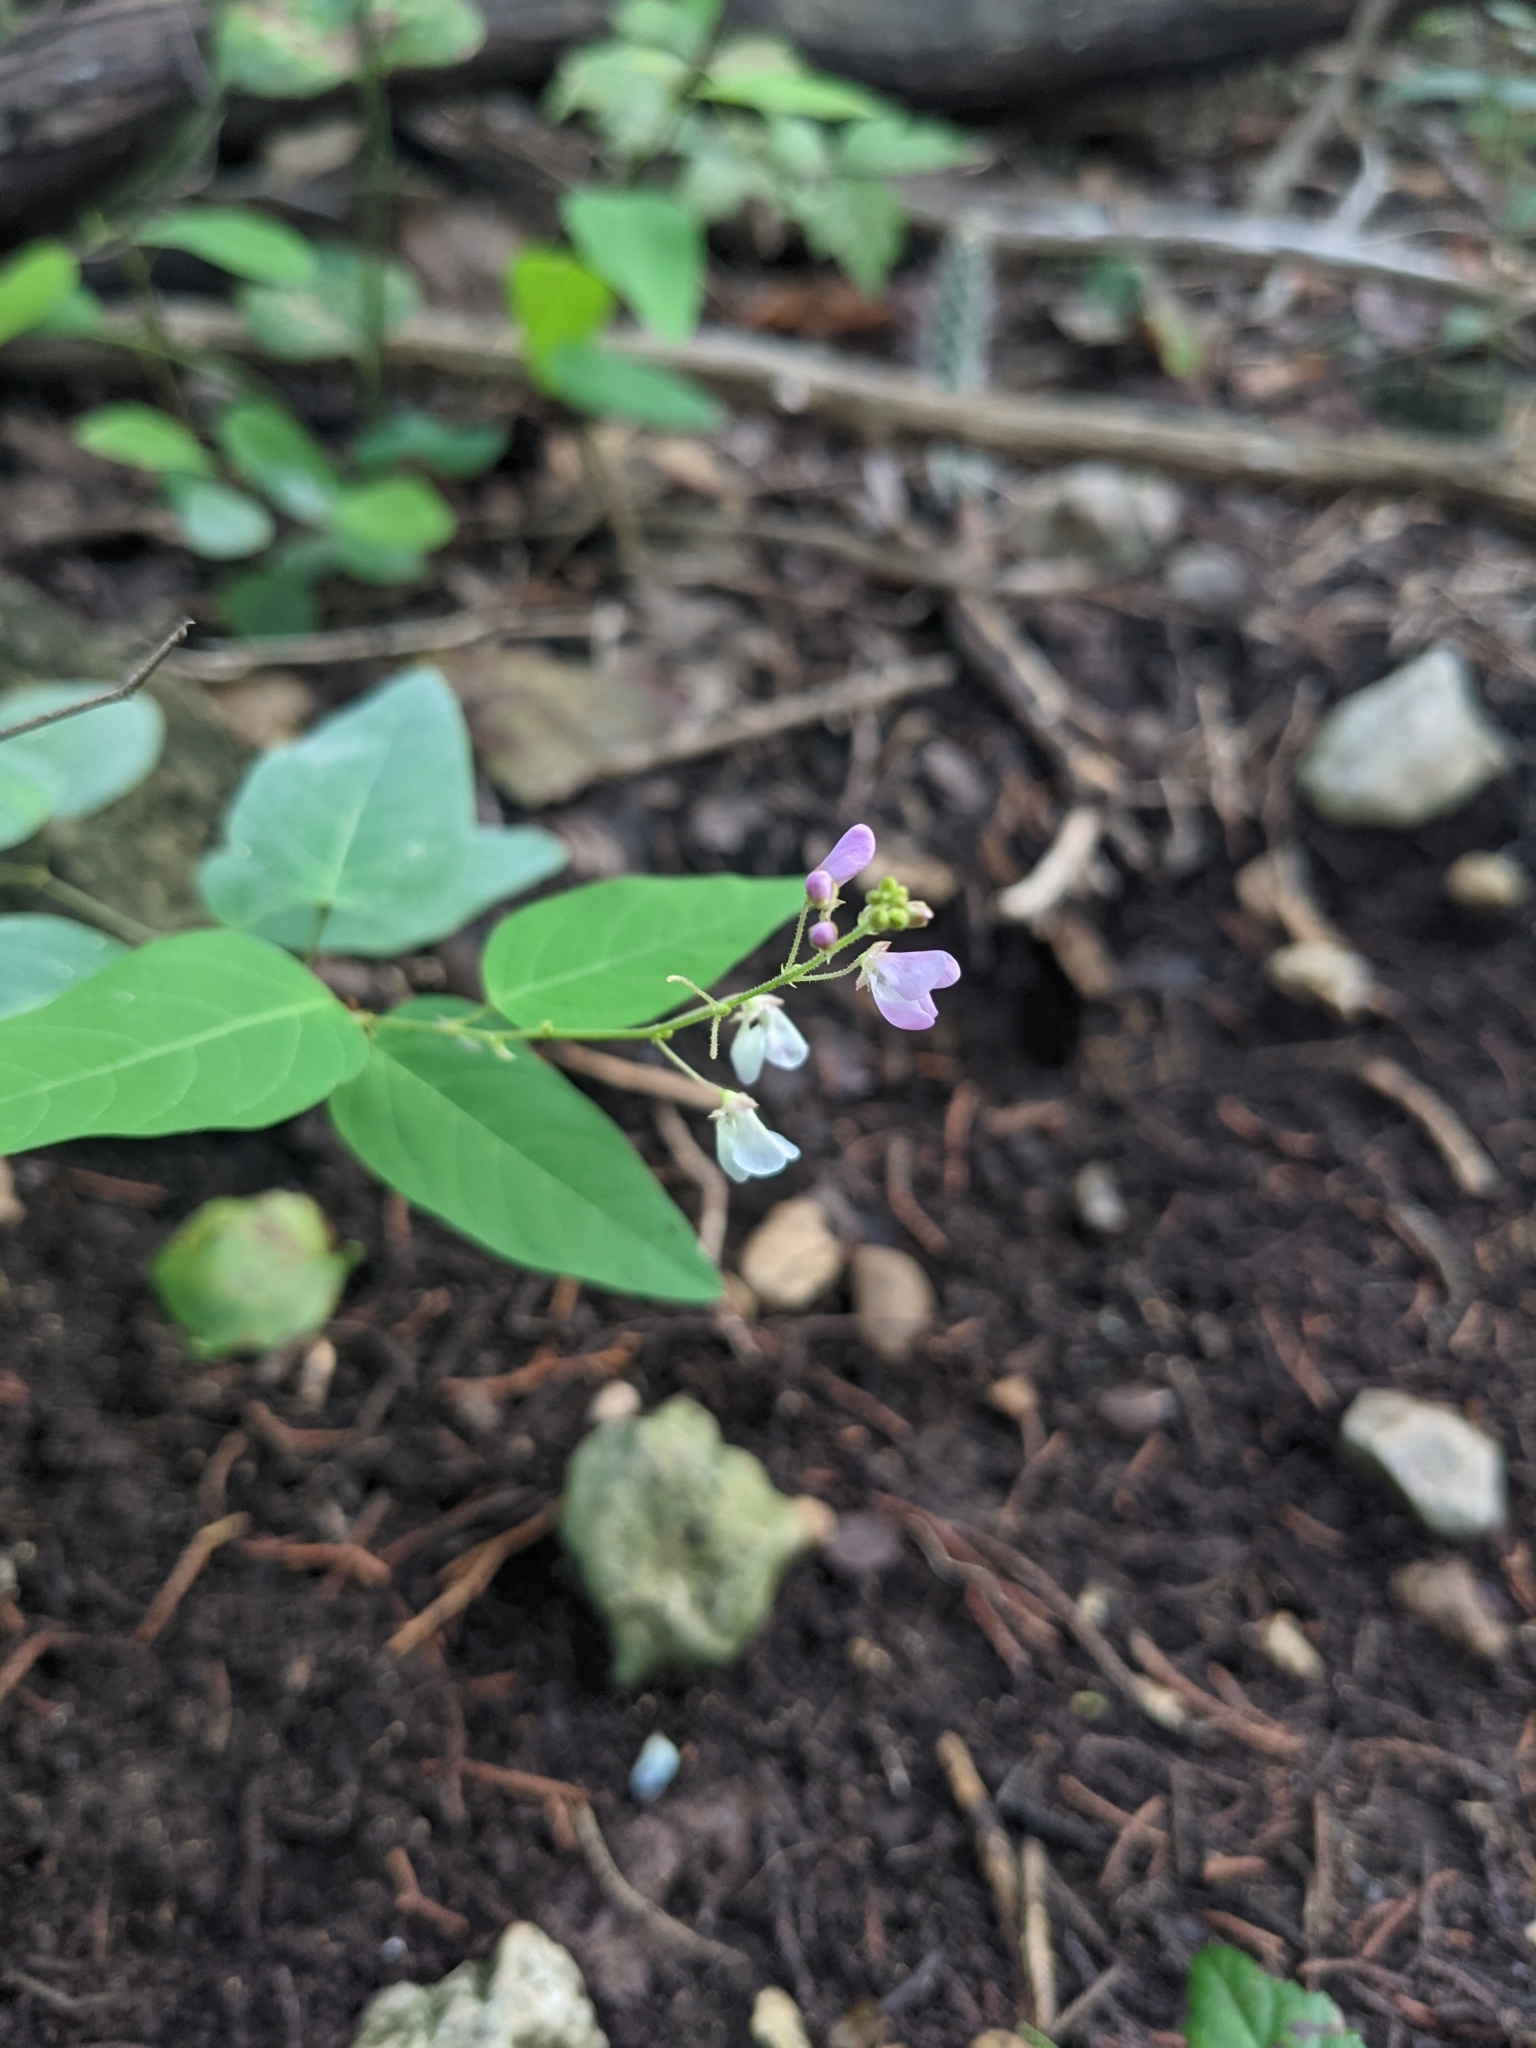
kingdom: Plantae
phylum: Tracheophyta
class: Magnoliopsida
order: Fabales
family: Fabaceae
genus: Desmodium
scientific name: Desmodium psilophyllum
